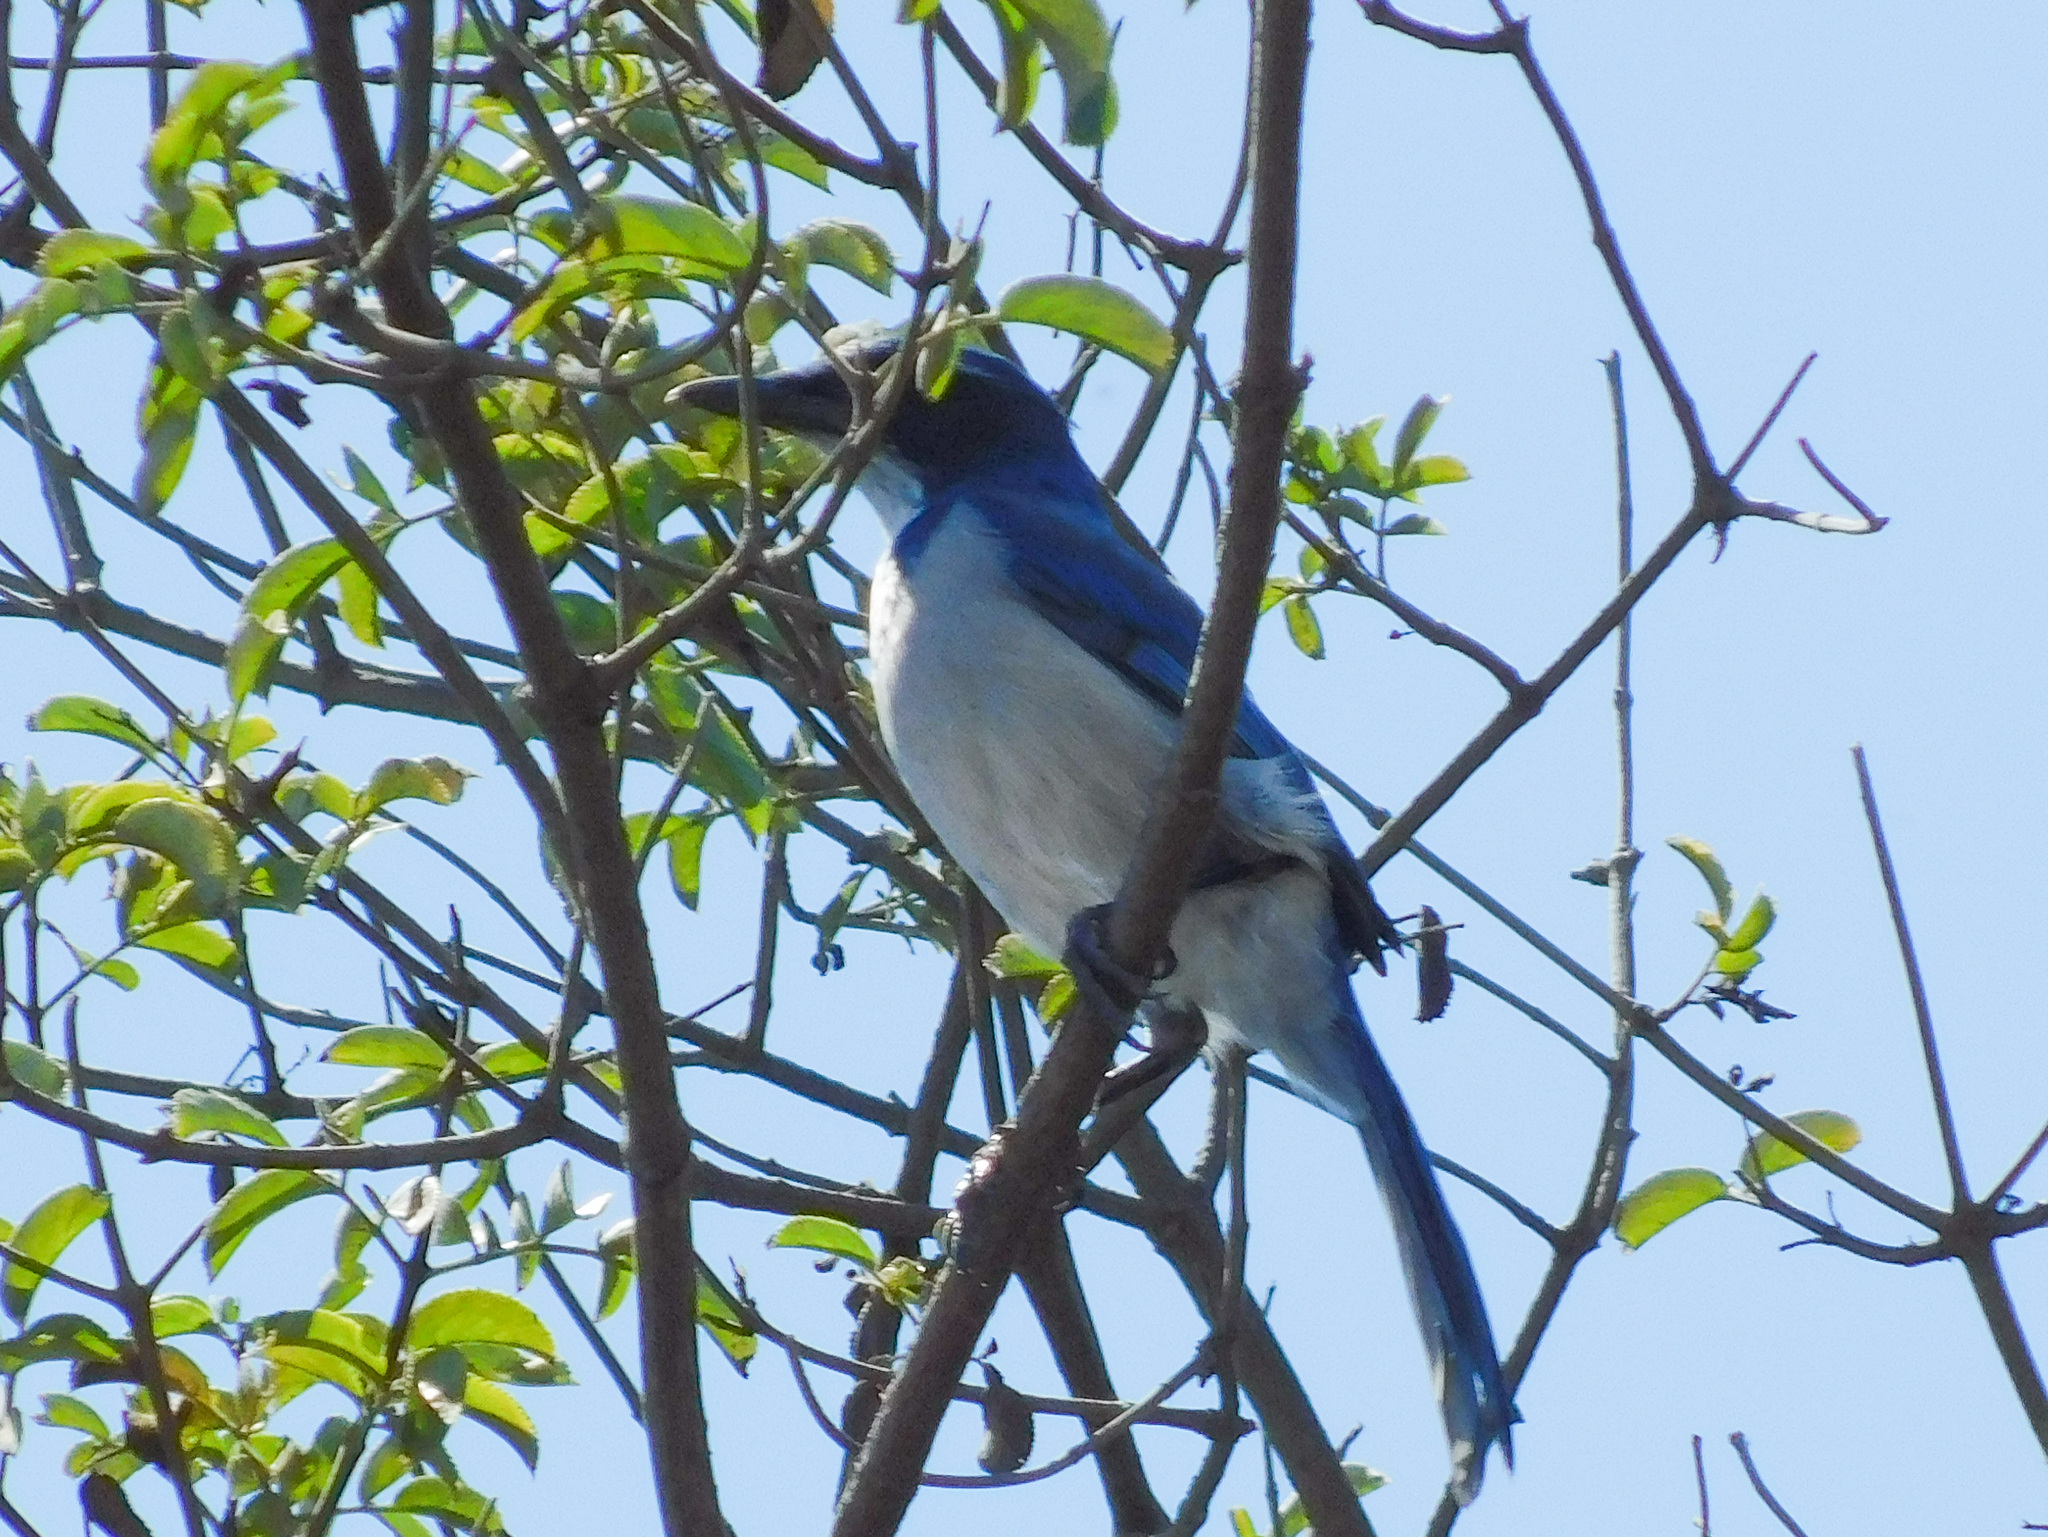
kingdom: Animalia
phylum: Chordata
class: Aves
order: Passeriformes
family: Corvidae
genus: Aphelocoma
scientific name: Aphelocoma californica
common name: California scrub-jay
